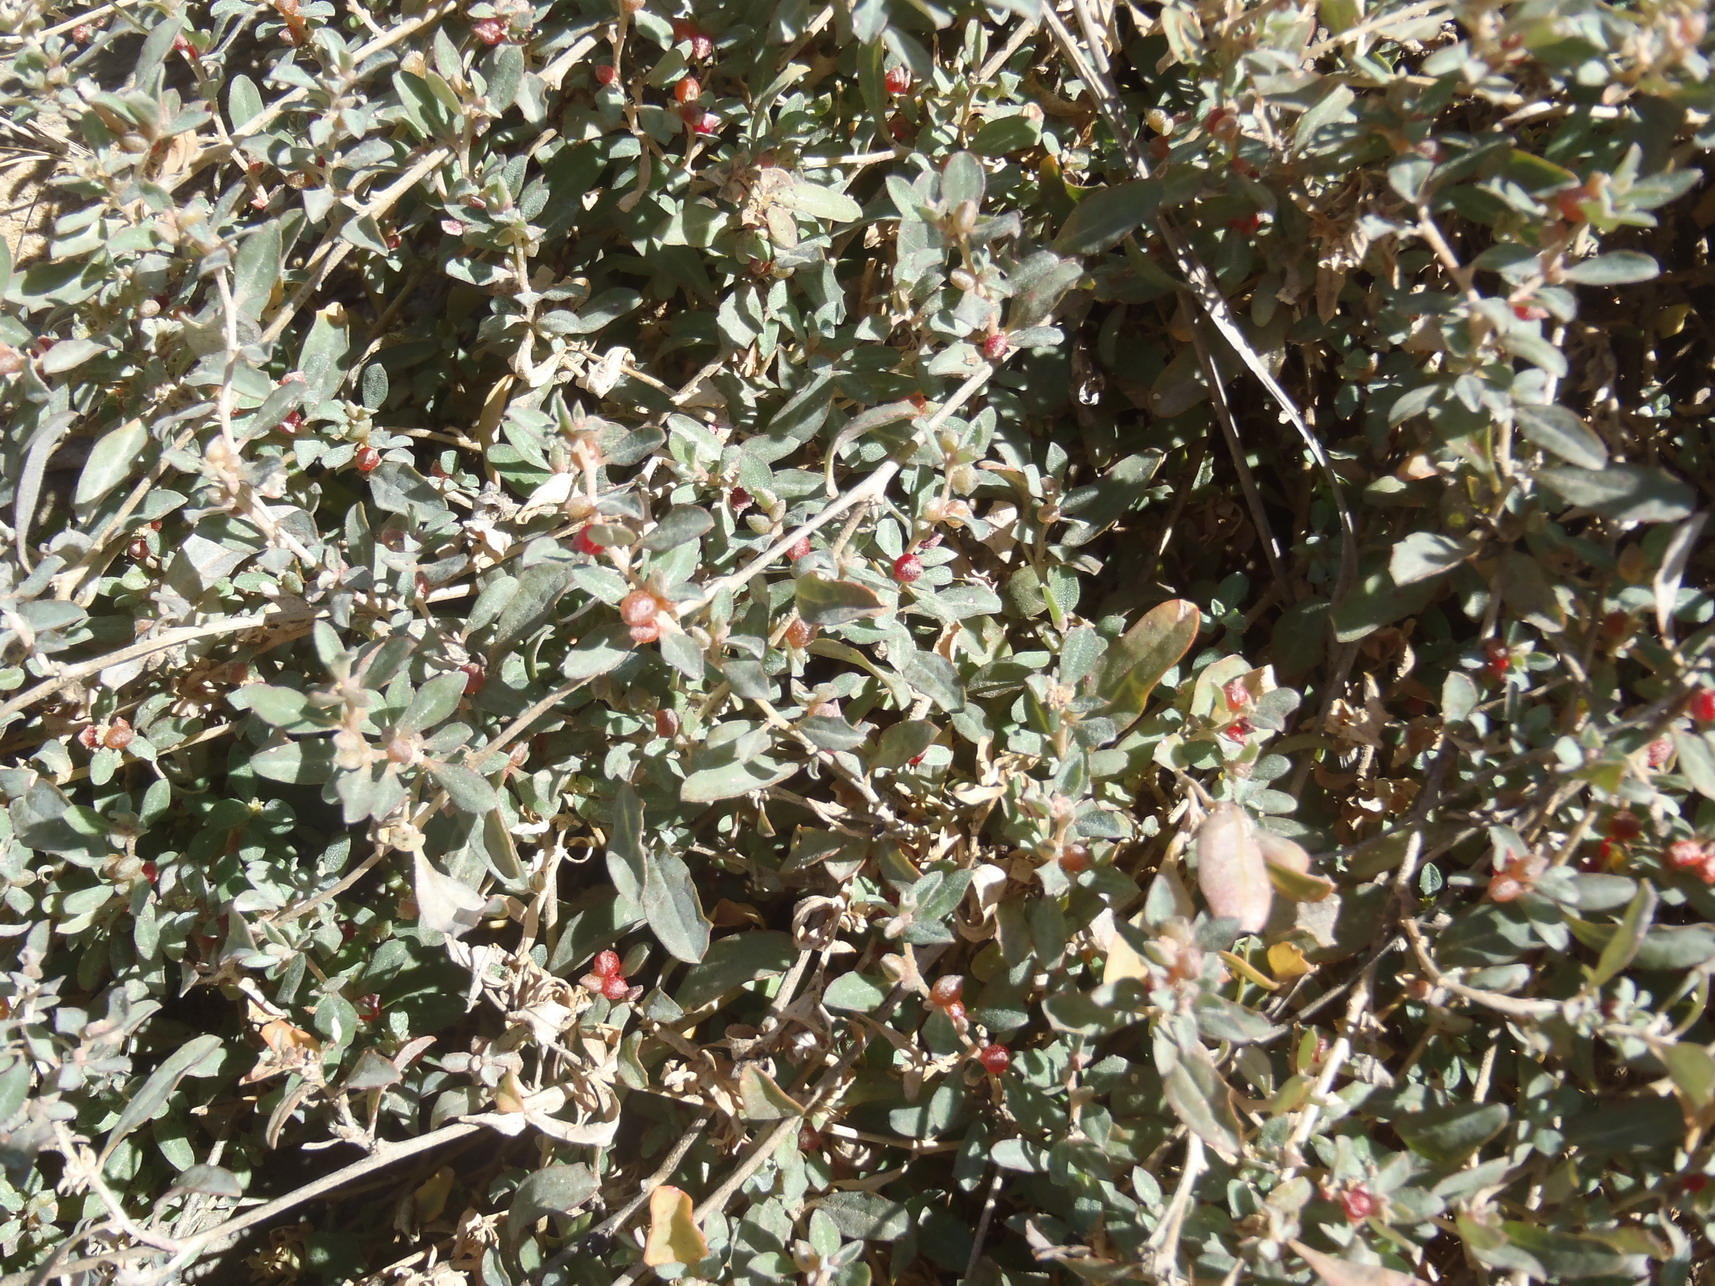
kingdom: Plantae
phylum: Tracheophyta
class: Magnoliopsida
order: Caryophyllales
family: Amaranthaceae
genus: Atriplex
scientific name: Atriplex semibaccata
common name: Australian saltbush
